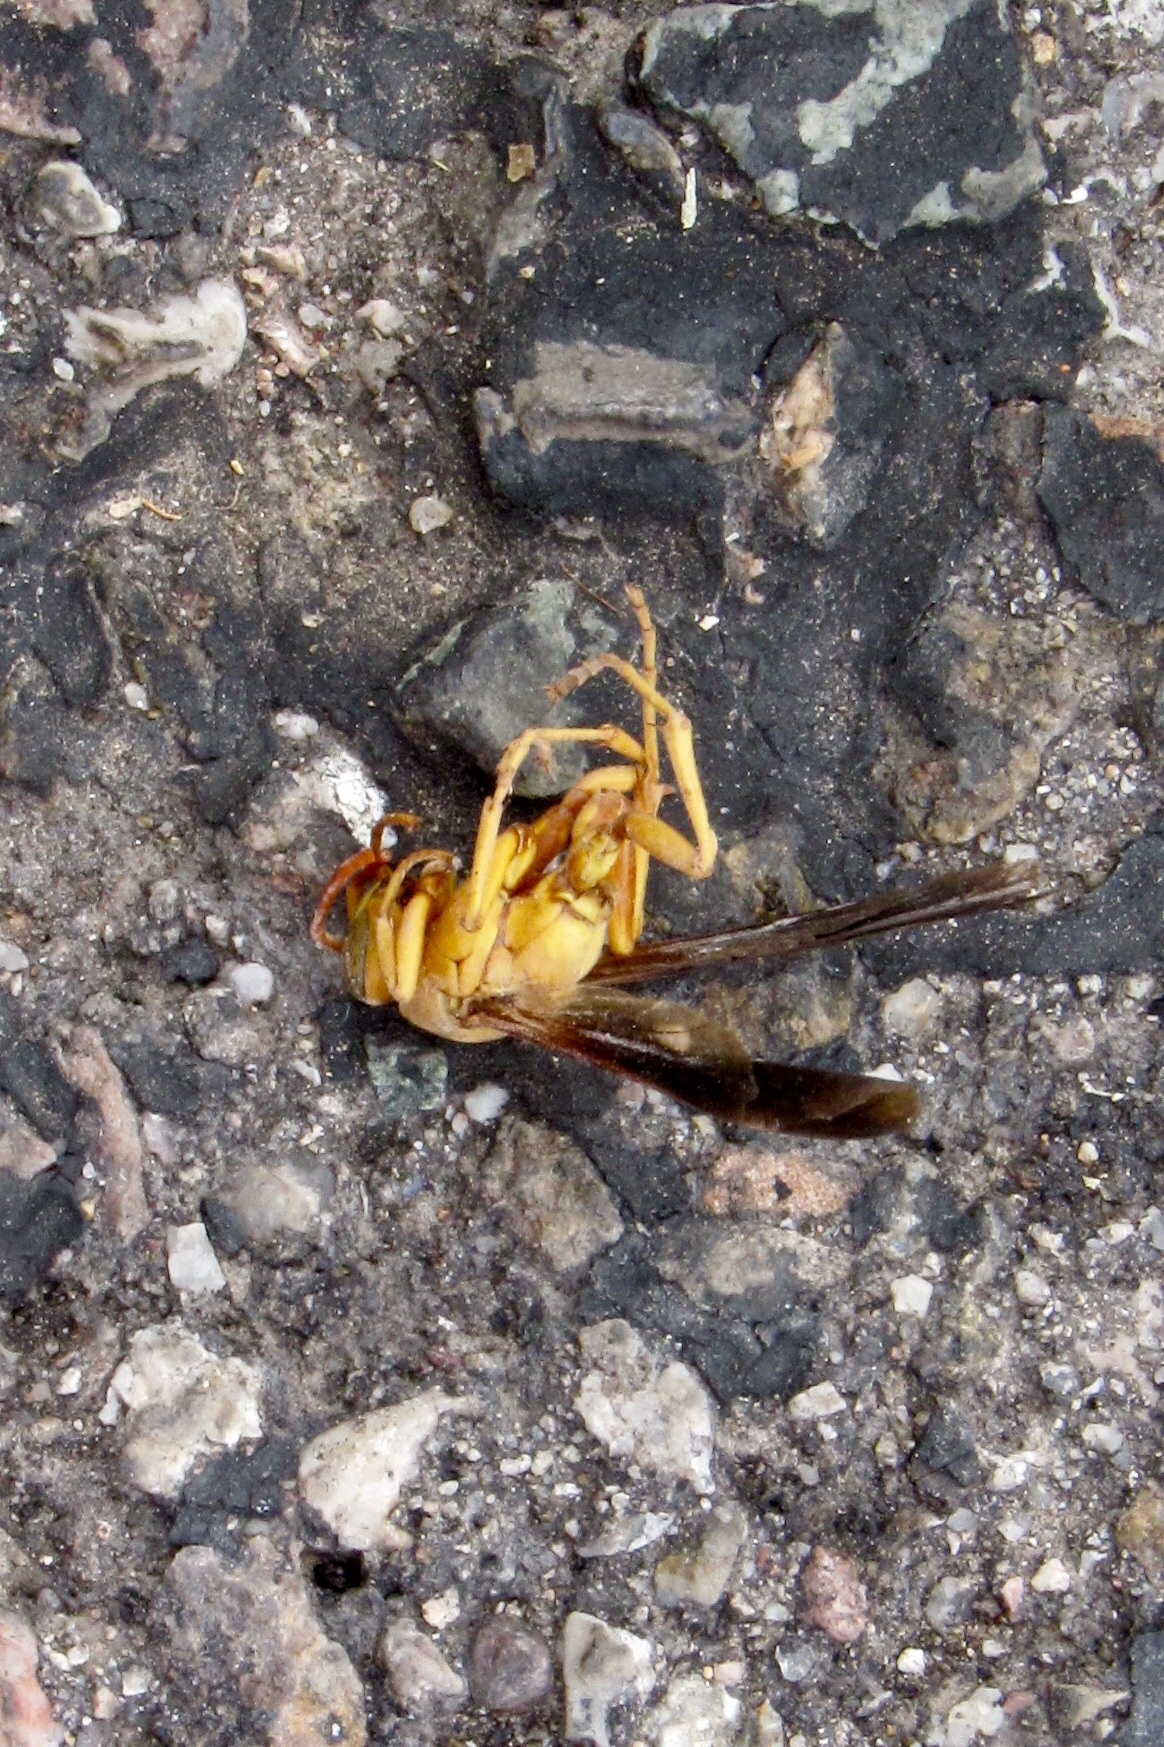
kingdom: Animalia
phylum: Arthropoda
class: Insecta
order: Hymenoptera
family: Eumenidae
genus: Polistes
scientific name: Polistes flavus
